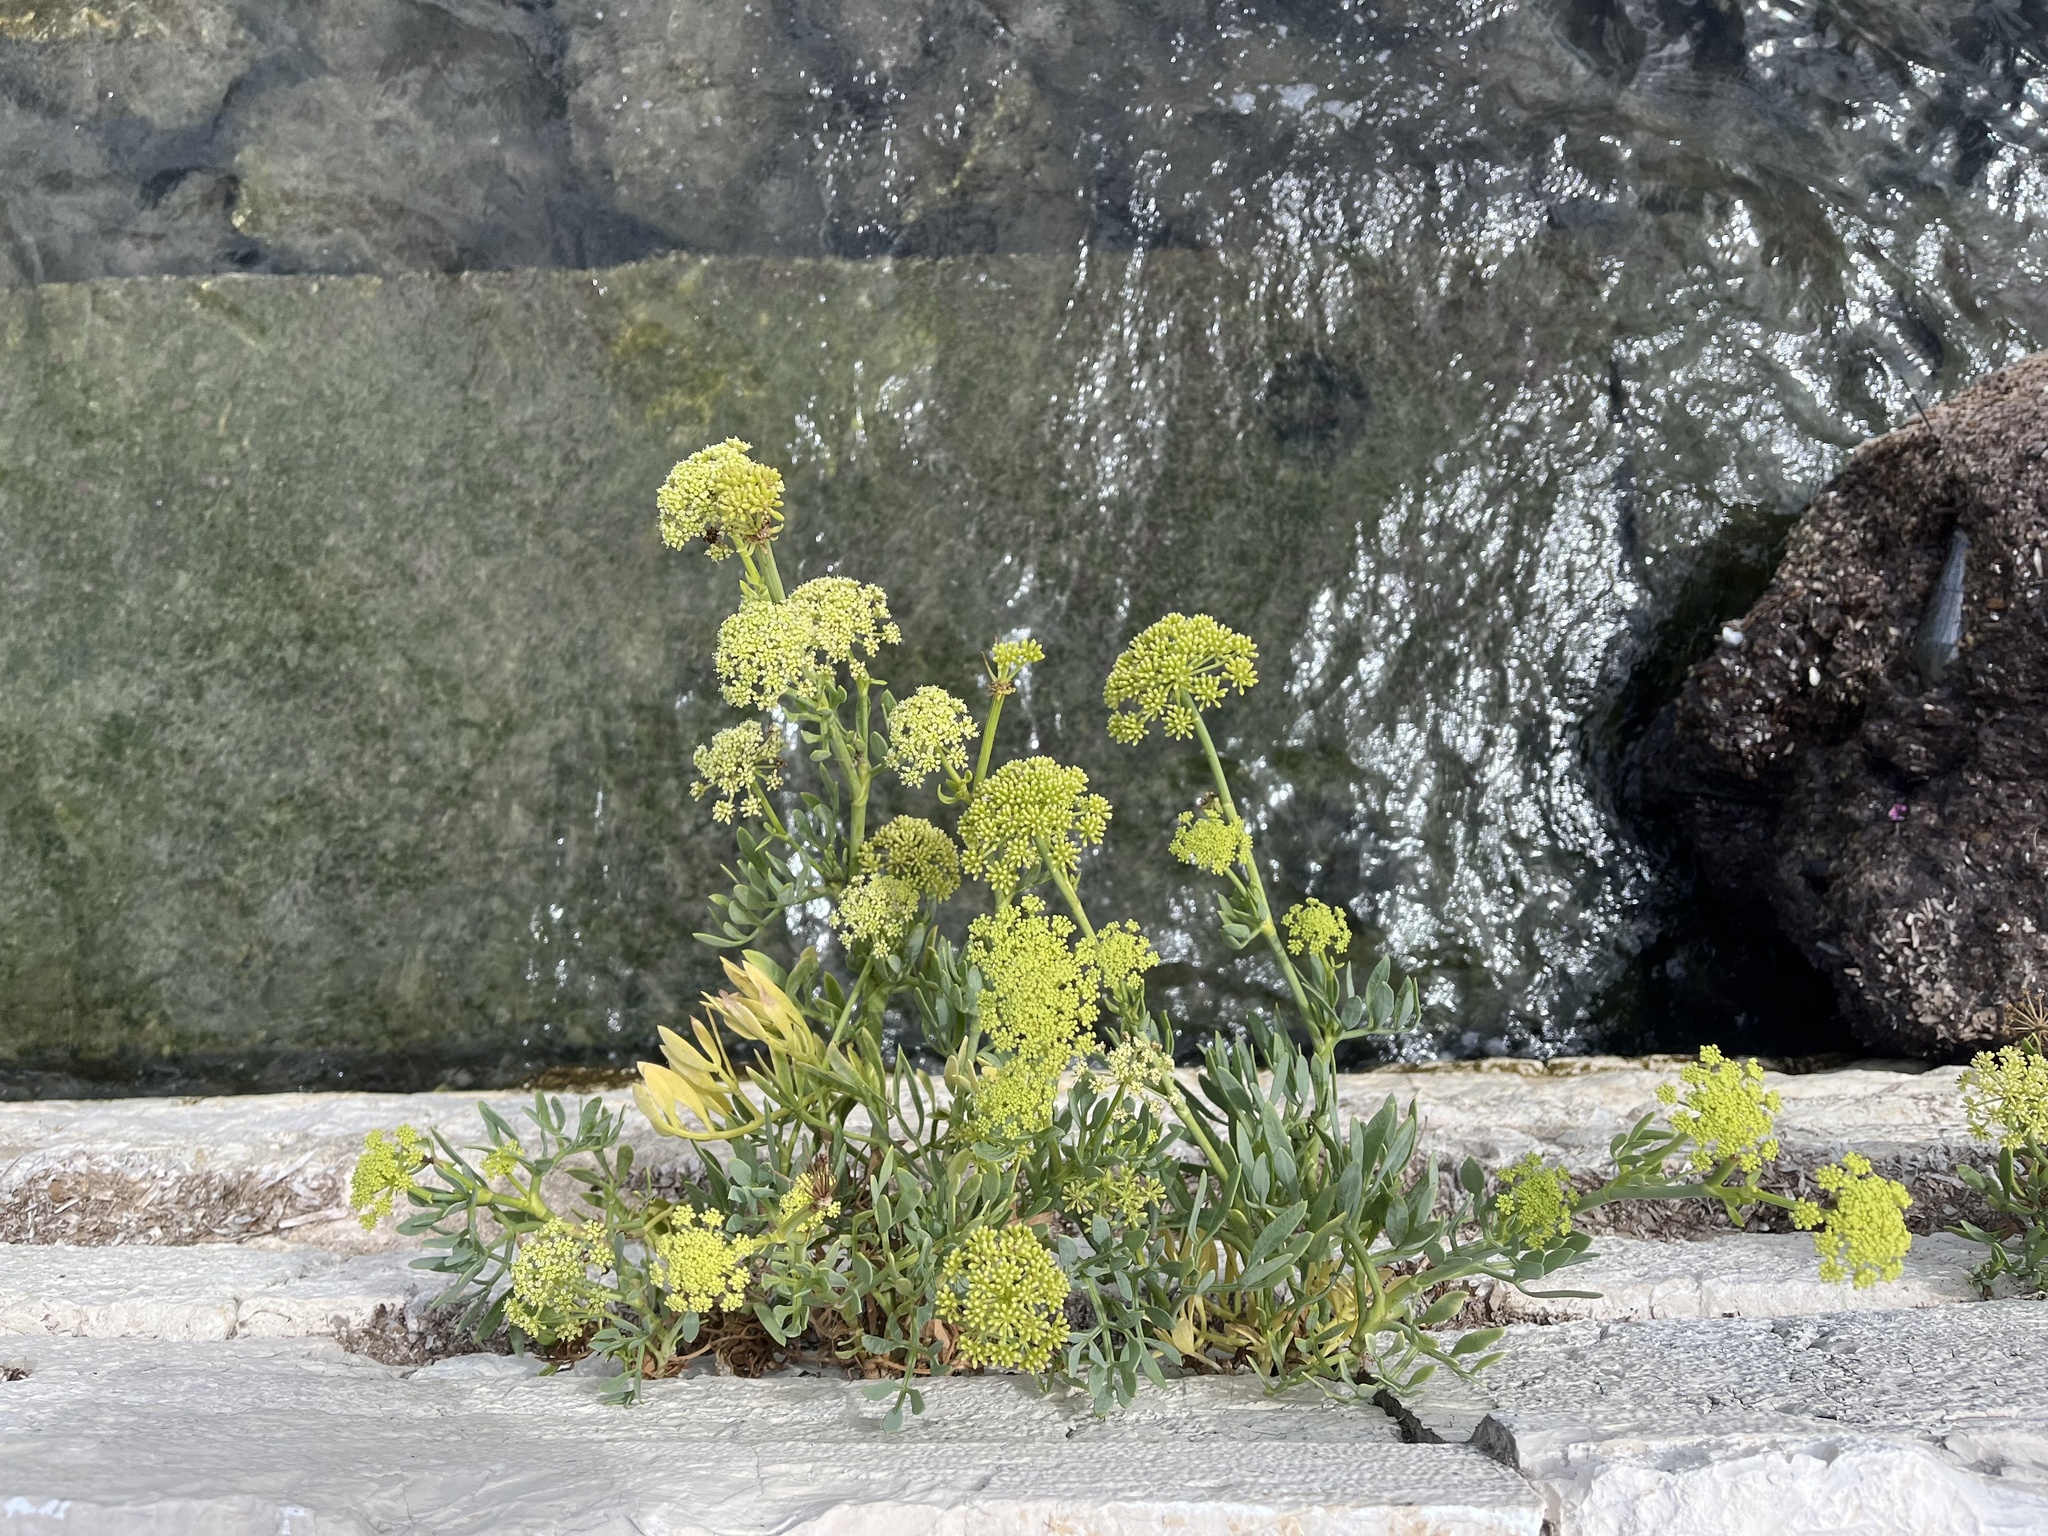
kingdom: Plantae
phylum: Tracheophyta
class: Magnoliopsida
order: Apiales
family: Apiaceae
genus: Crithmum
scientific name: Crithmum maritimum
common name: Rock samphire
